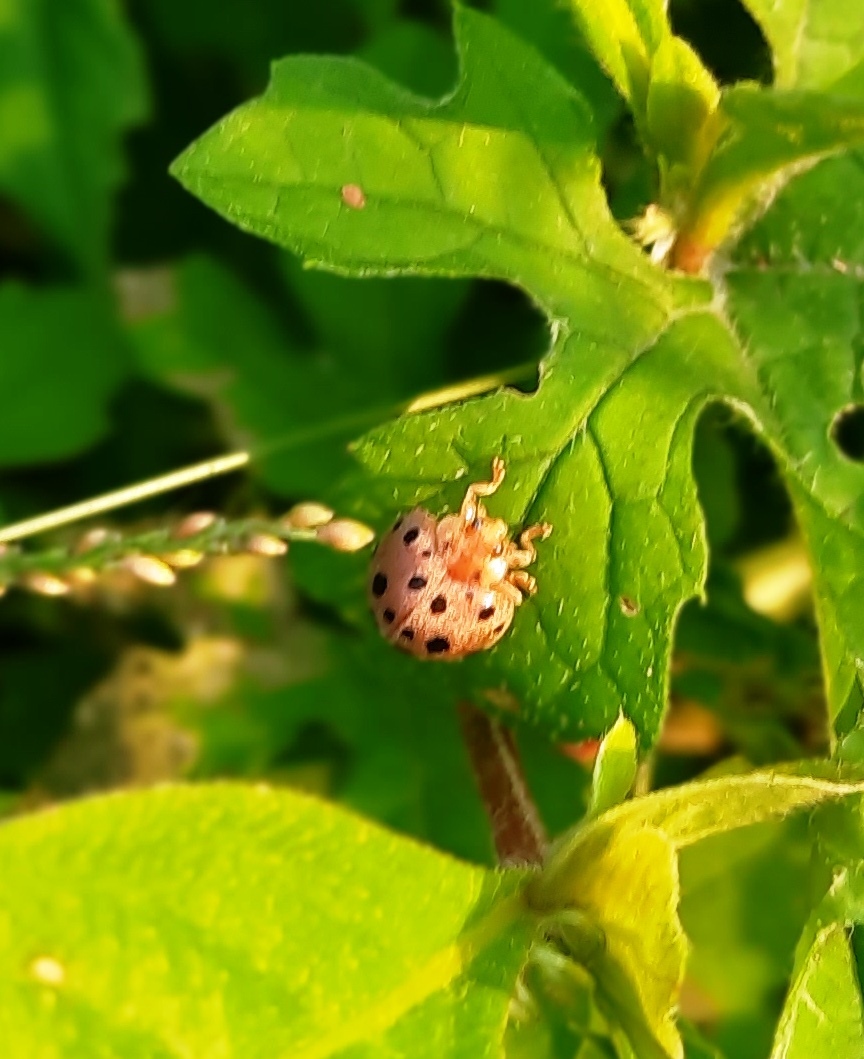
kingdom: Animalia
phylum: Arthropoda
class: Insecta
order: Coleoptera
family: Coccinellidae
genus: Henosepilachna
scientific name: Henosepilachna vigintioctopunctata
